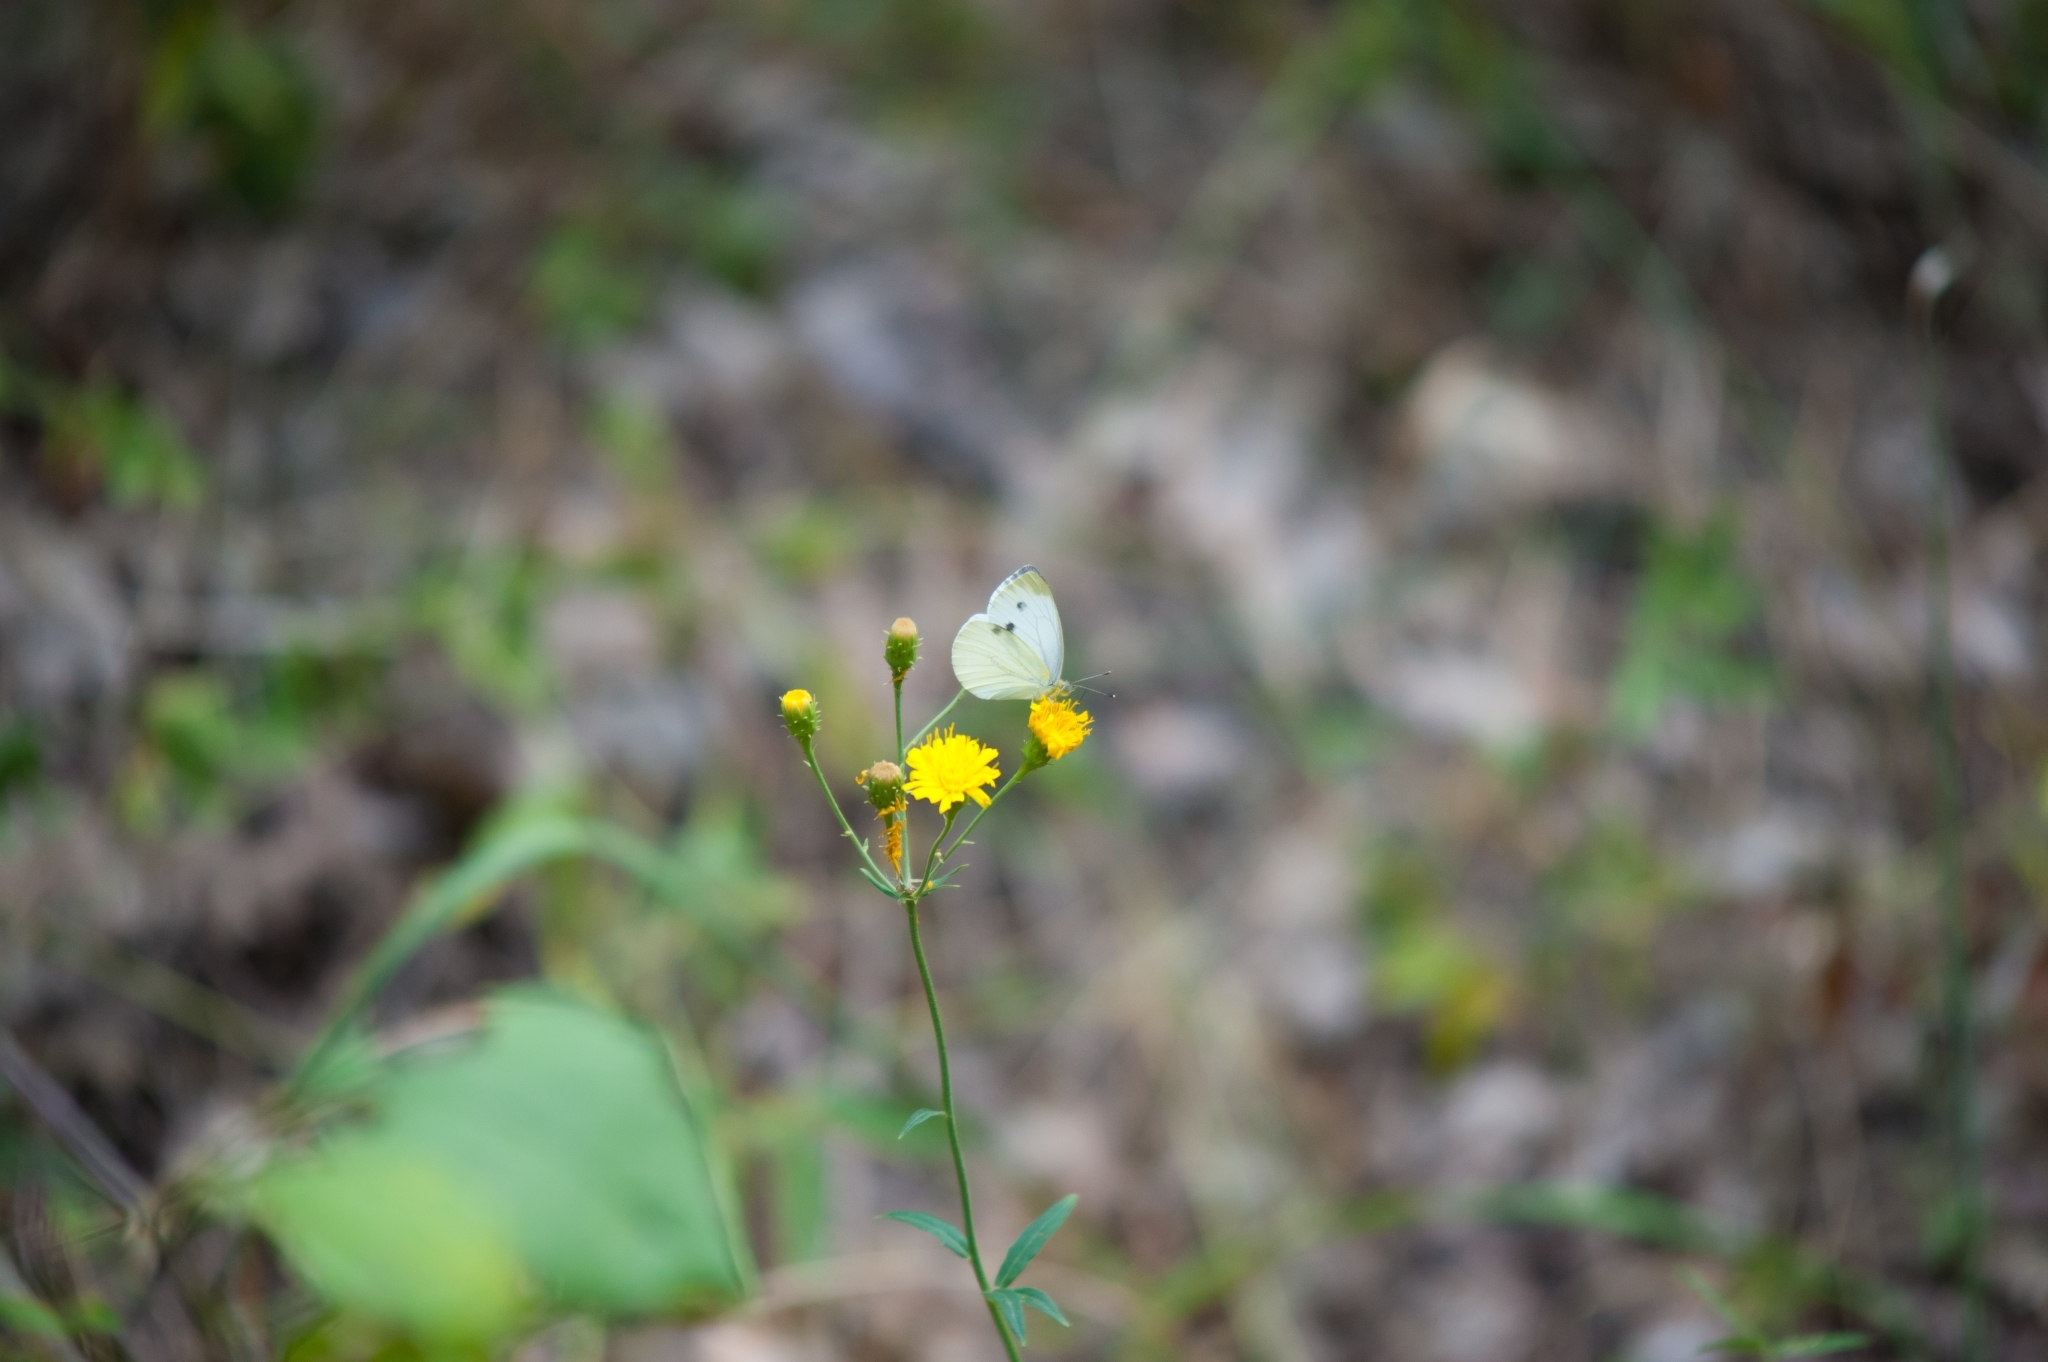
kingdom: Animalia
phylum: Arthropoda
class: Insecta
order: Lepidoptera
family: Pieridae
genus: Pieris
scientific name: Pieris napi
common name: Green-veined white
